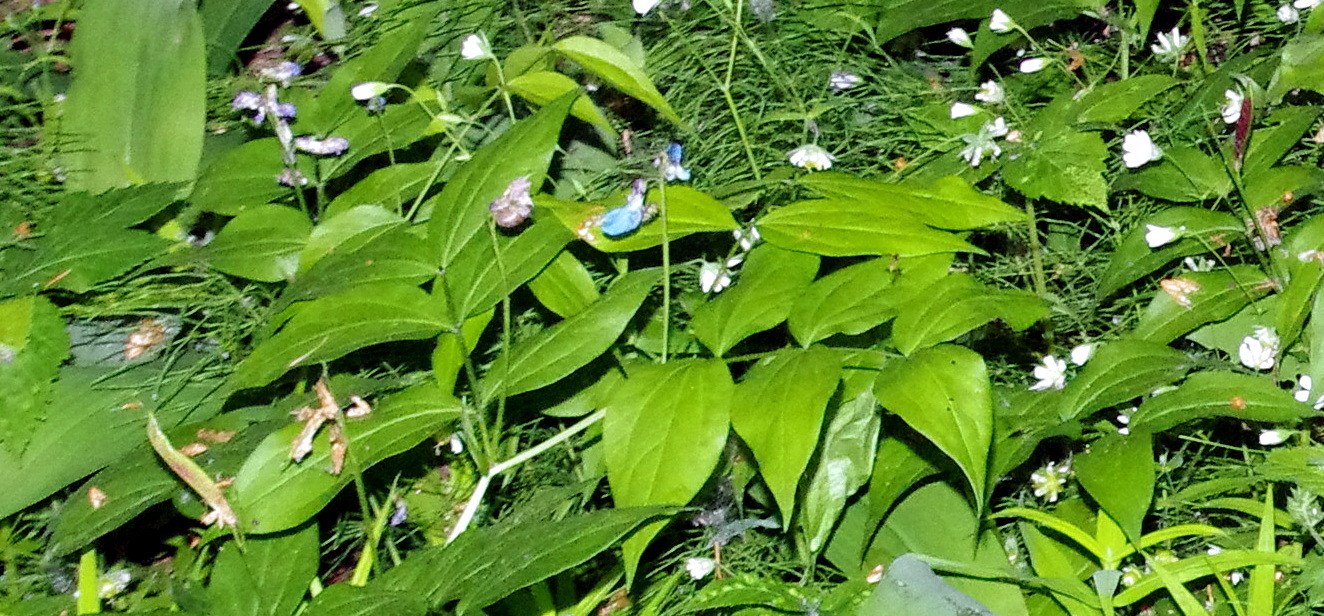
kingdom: Plantae
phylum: Tracheophyta
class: Magnoliopsida
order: Fabales
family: Fabaceae
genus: Lathyrus
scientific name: Lathyrus vernus
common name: Spring pea
